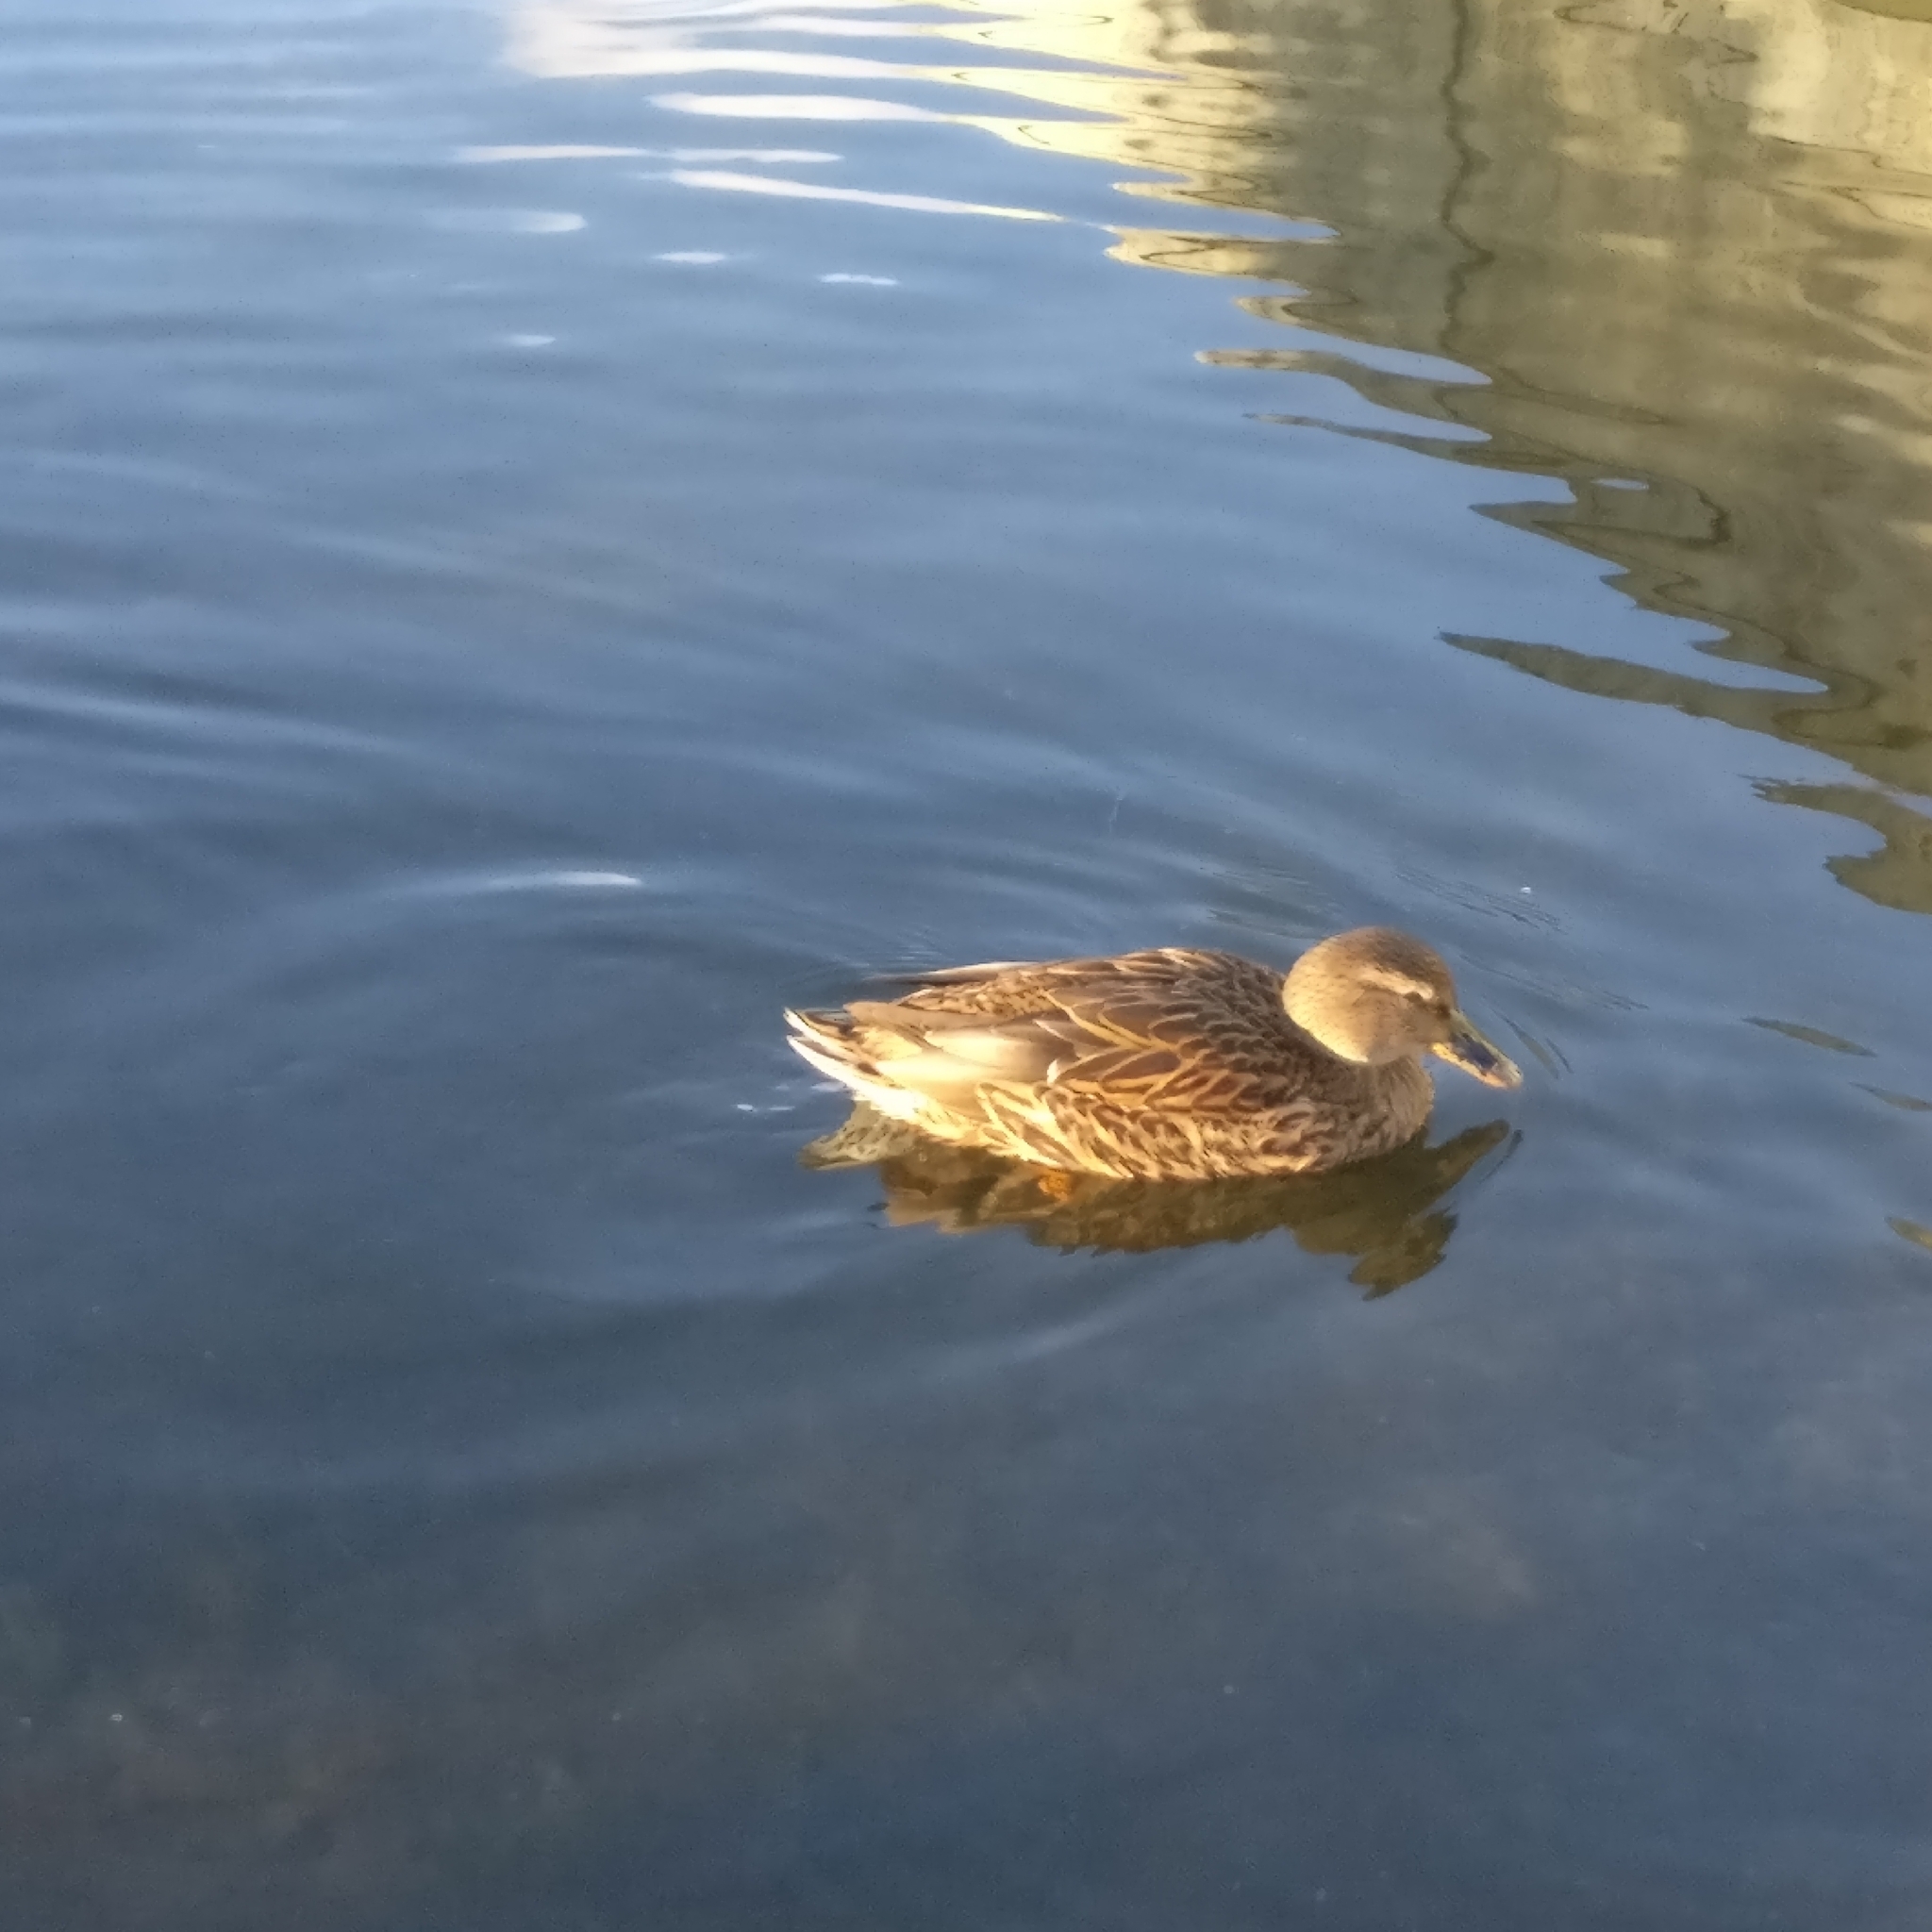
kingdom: Animalia
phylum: Chordata
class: Aves
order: Anseriformes
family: Anatidae
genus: Anas
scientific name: Anas platyrhynchos
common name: Mallard
